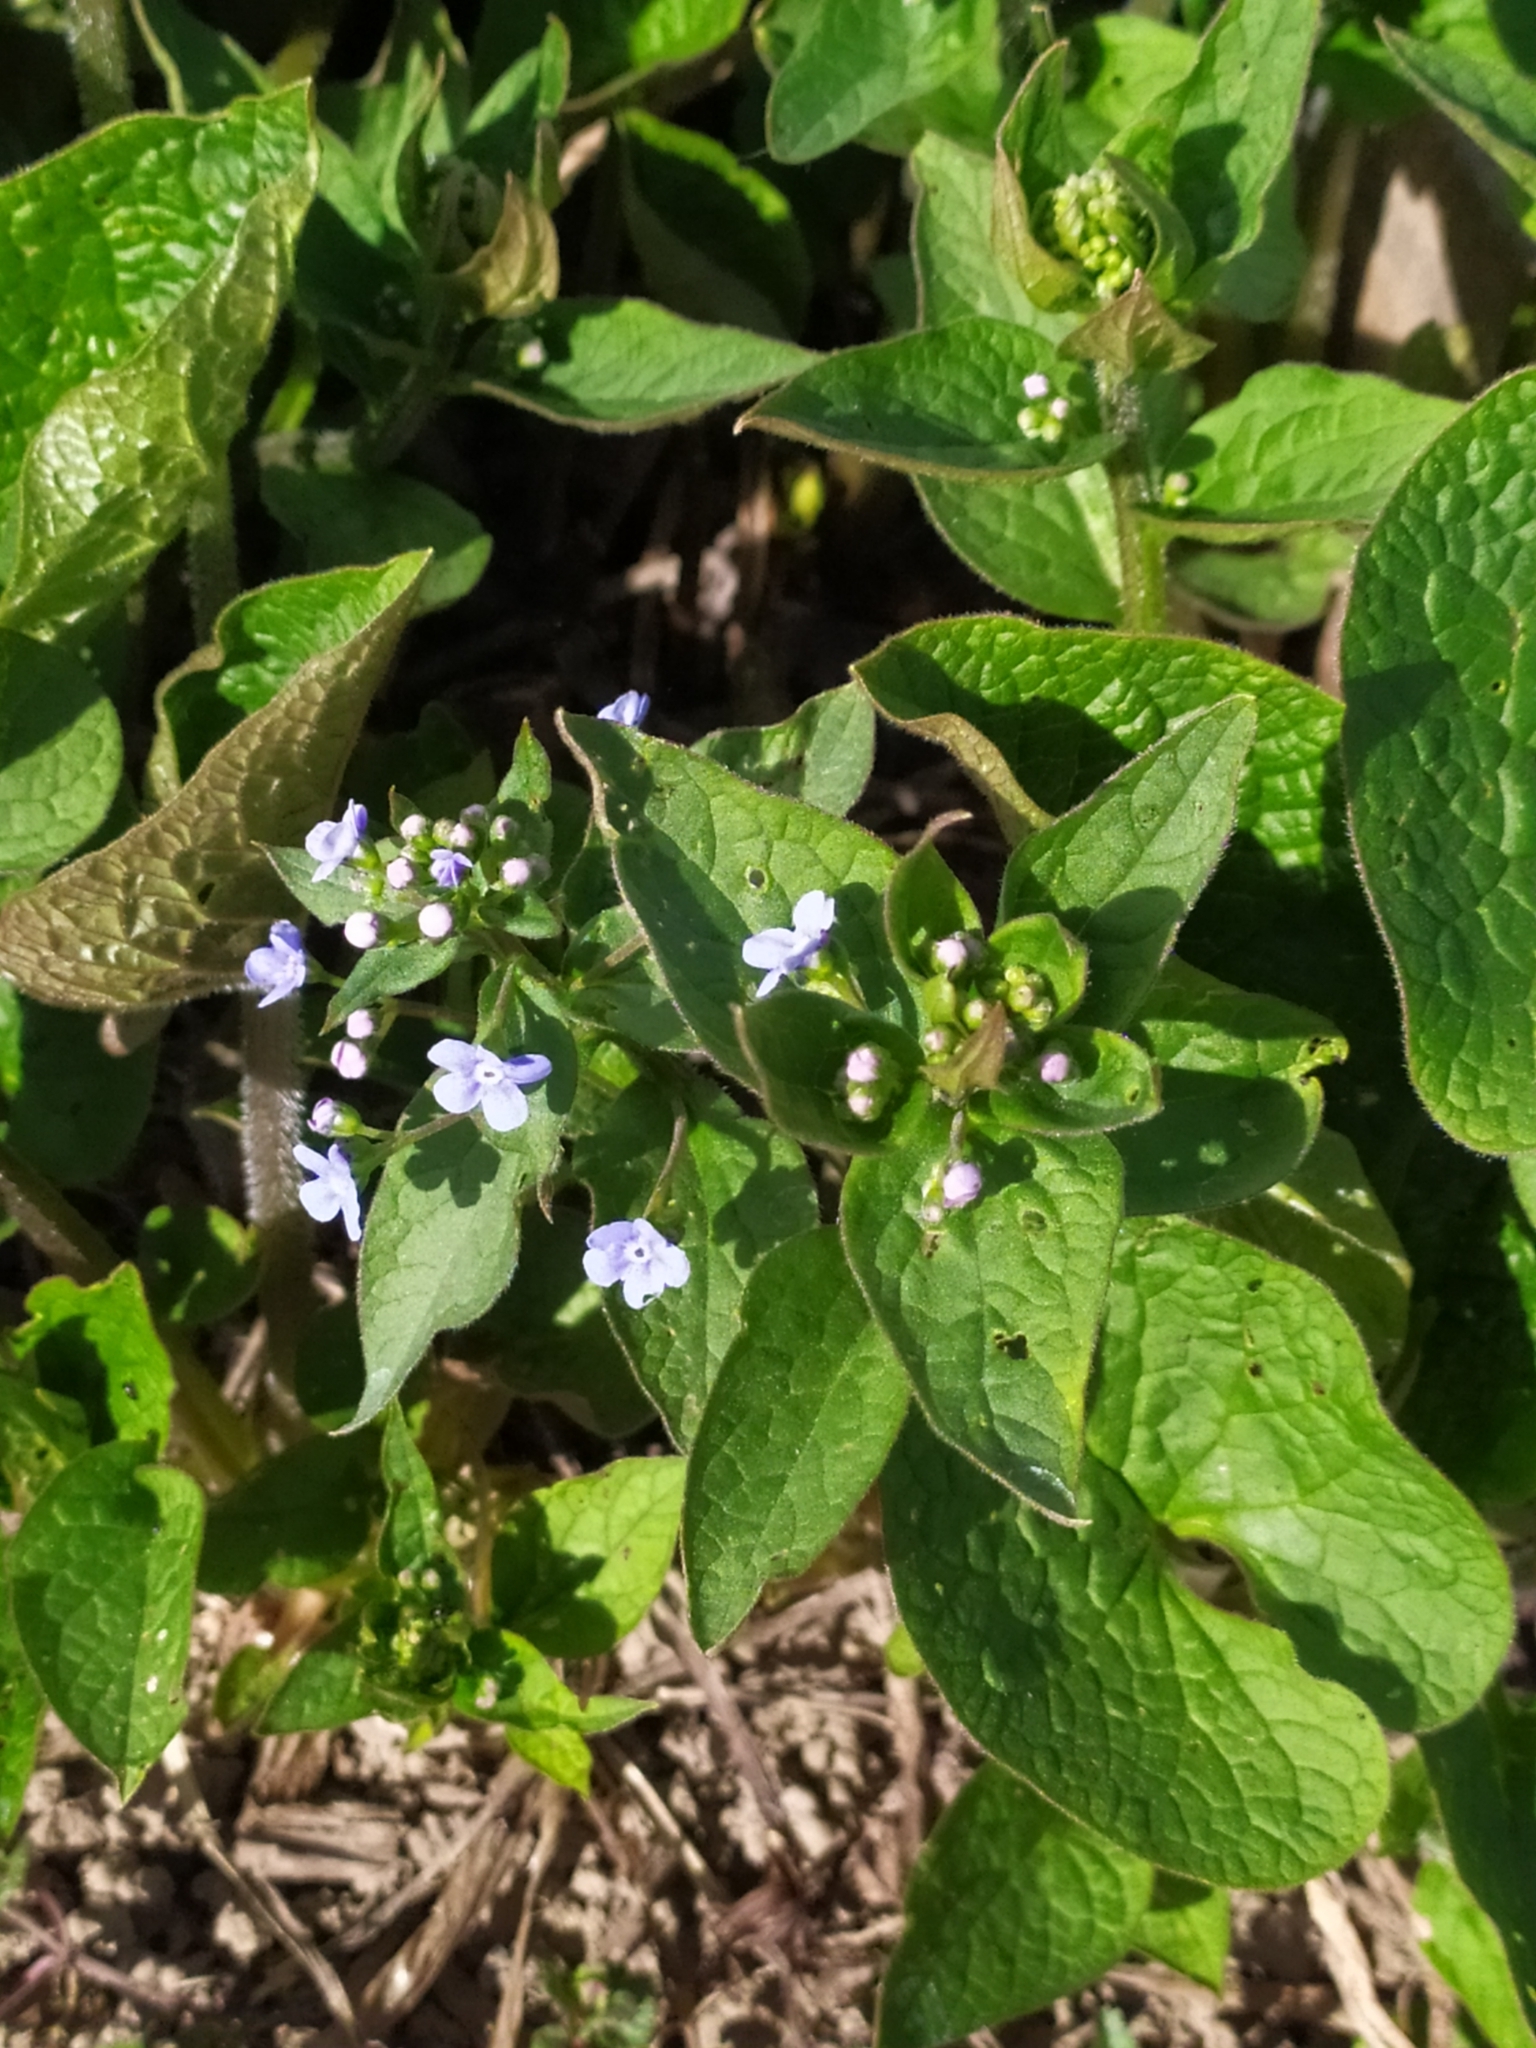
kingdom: Plantae
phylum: Tracheophyta
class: Magnoliopsida
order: Boraginales
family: Boraginaceae
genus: Brunnera
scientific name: Brunnera sibirica
